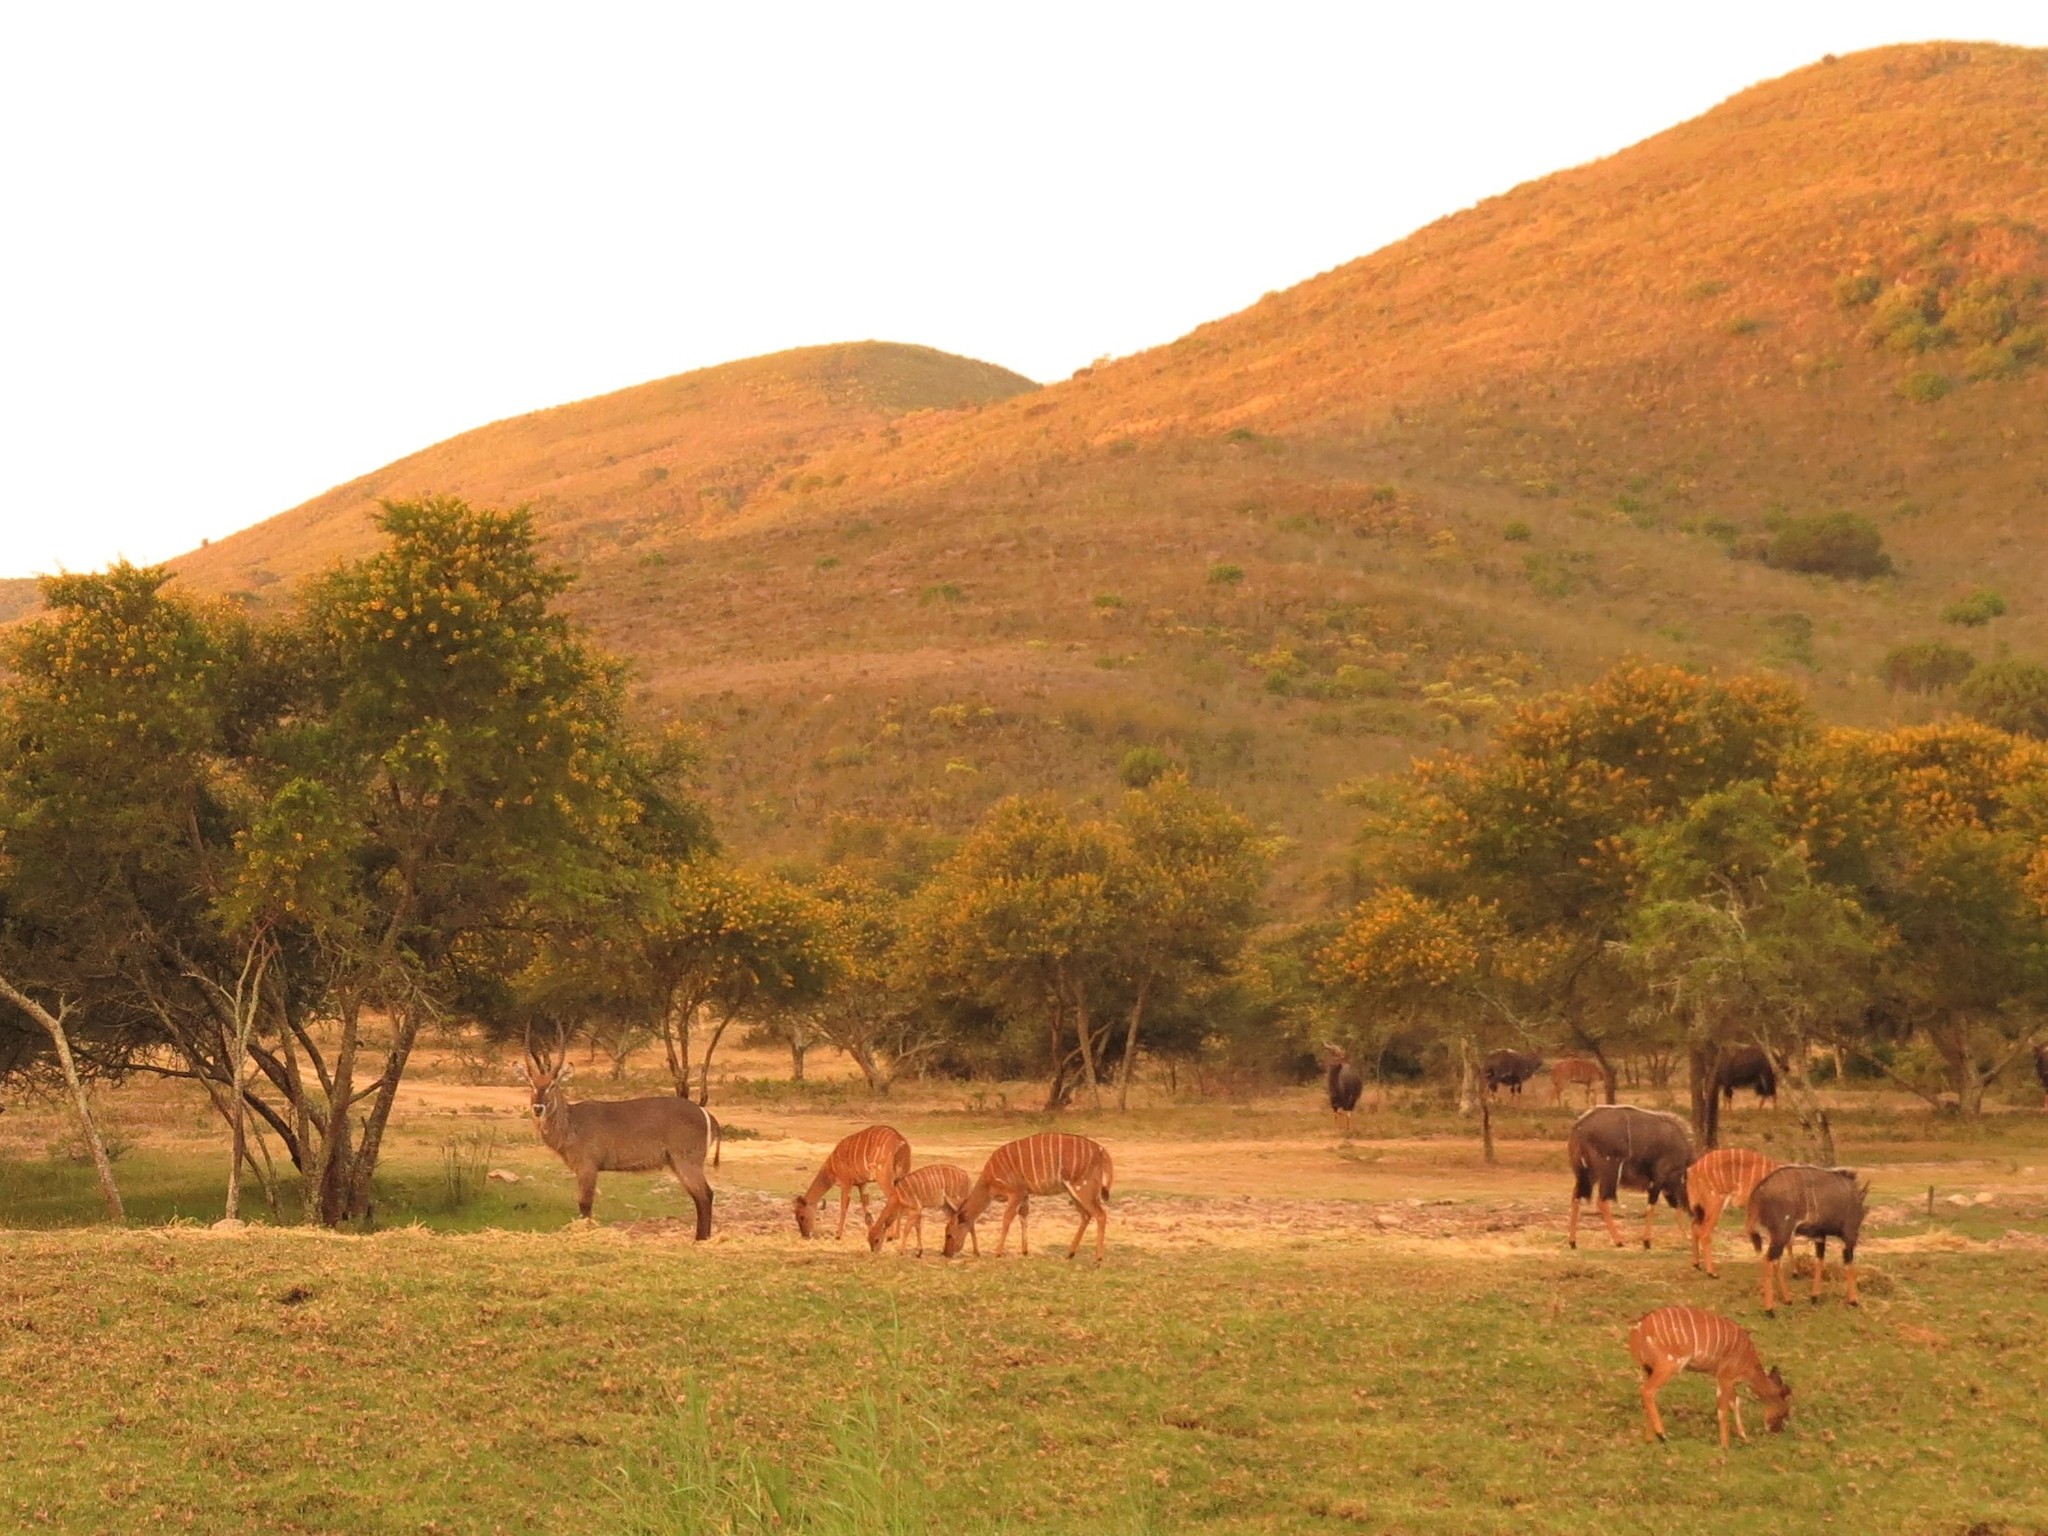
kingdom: Animalia
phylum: Chordata
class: Mammalia
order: Artiodactyla
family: Bovidae
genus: Tragelaphus
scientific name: Tragelaphus angasii
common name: Nyala
